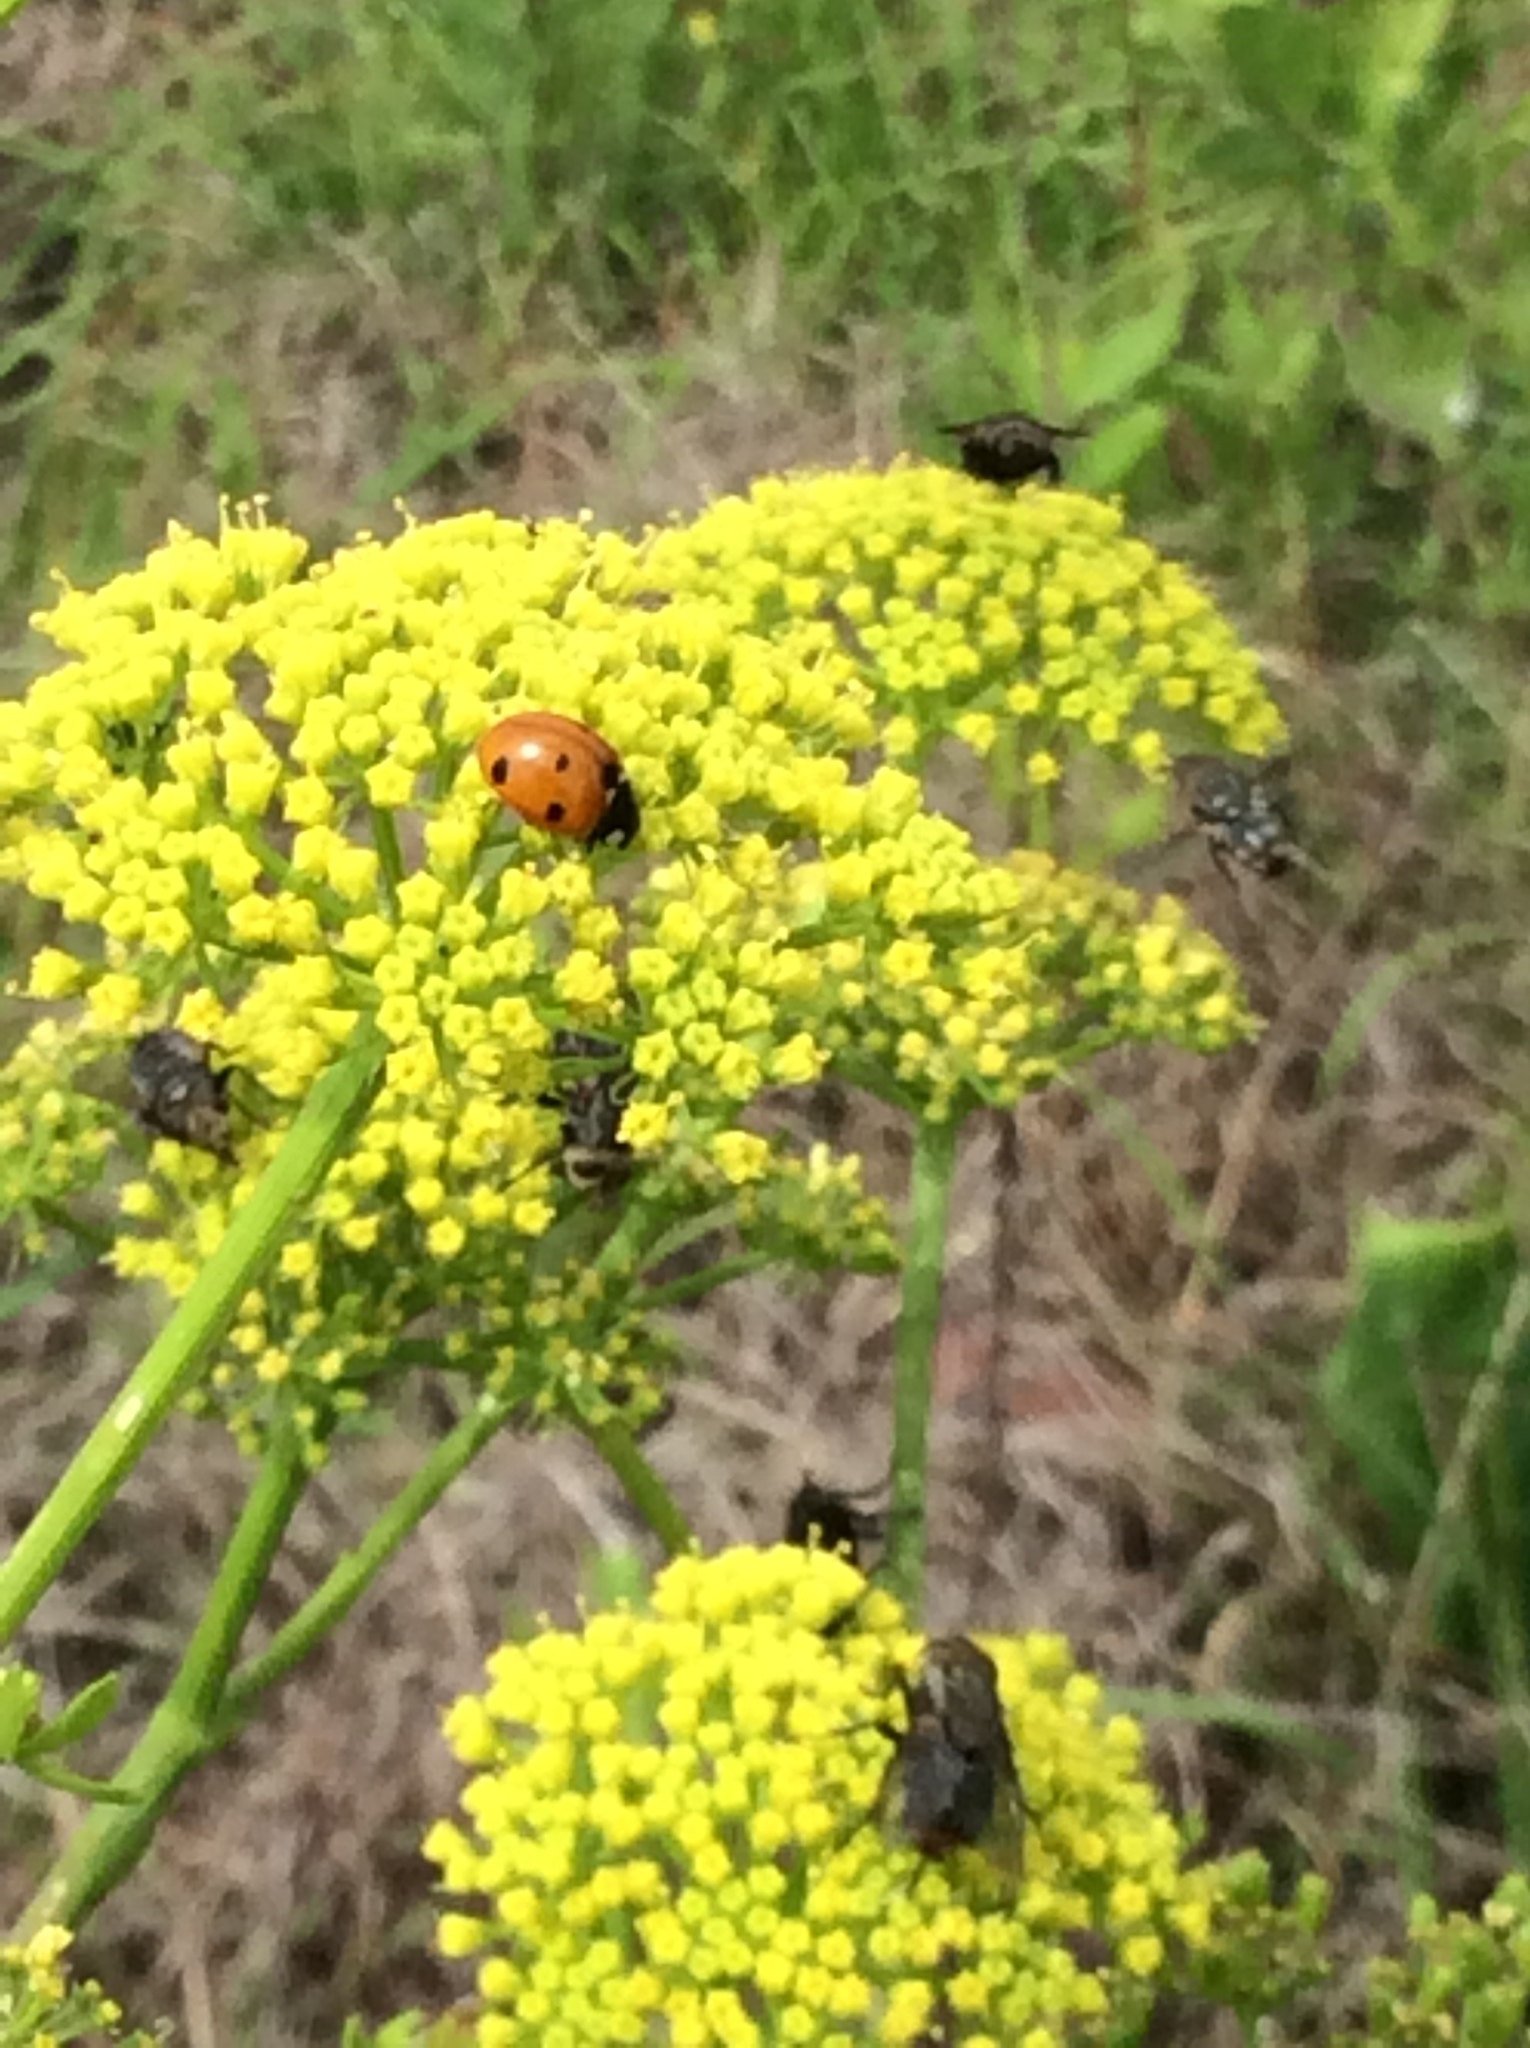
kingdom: Animalia
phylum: Arthropoda
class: Insecta
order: Coleoptera
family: Coccinellidae
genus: Coccinella
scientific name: Coccinella septempunctata
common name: Sevenspotted lady beetle
